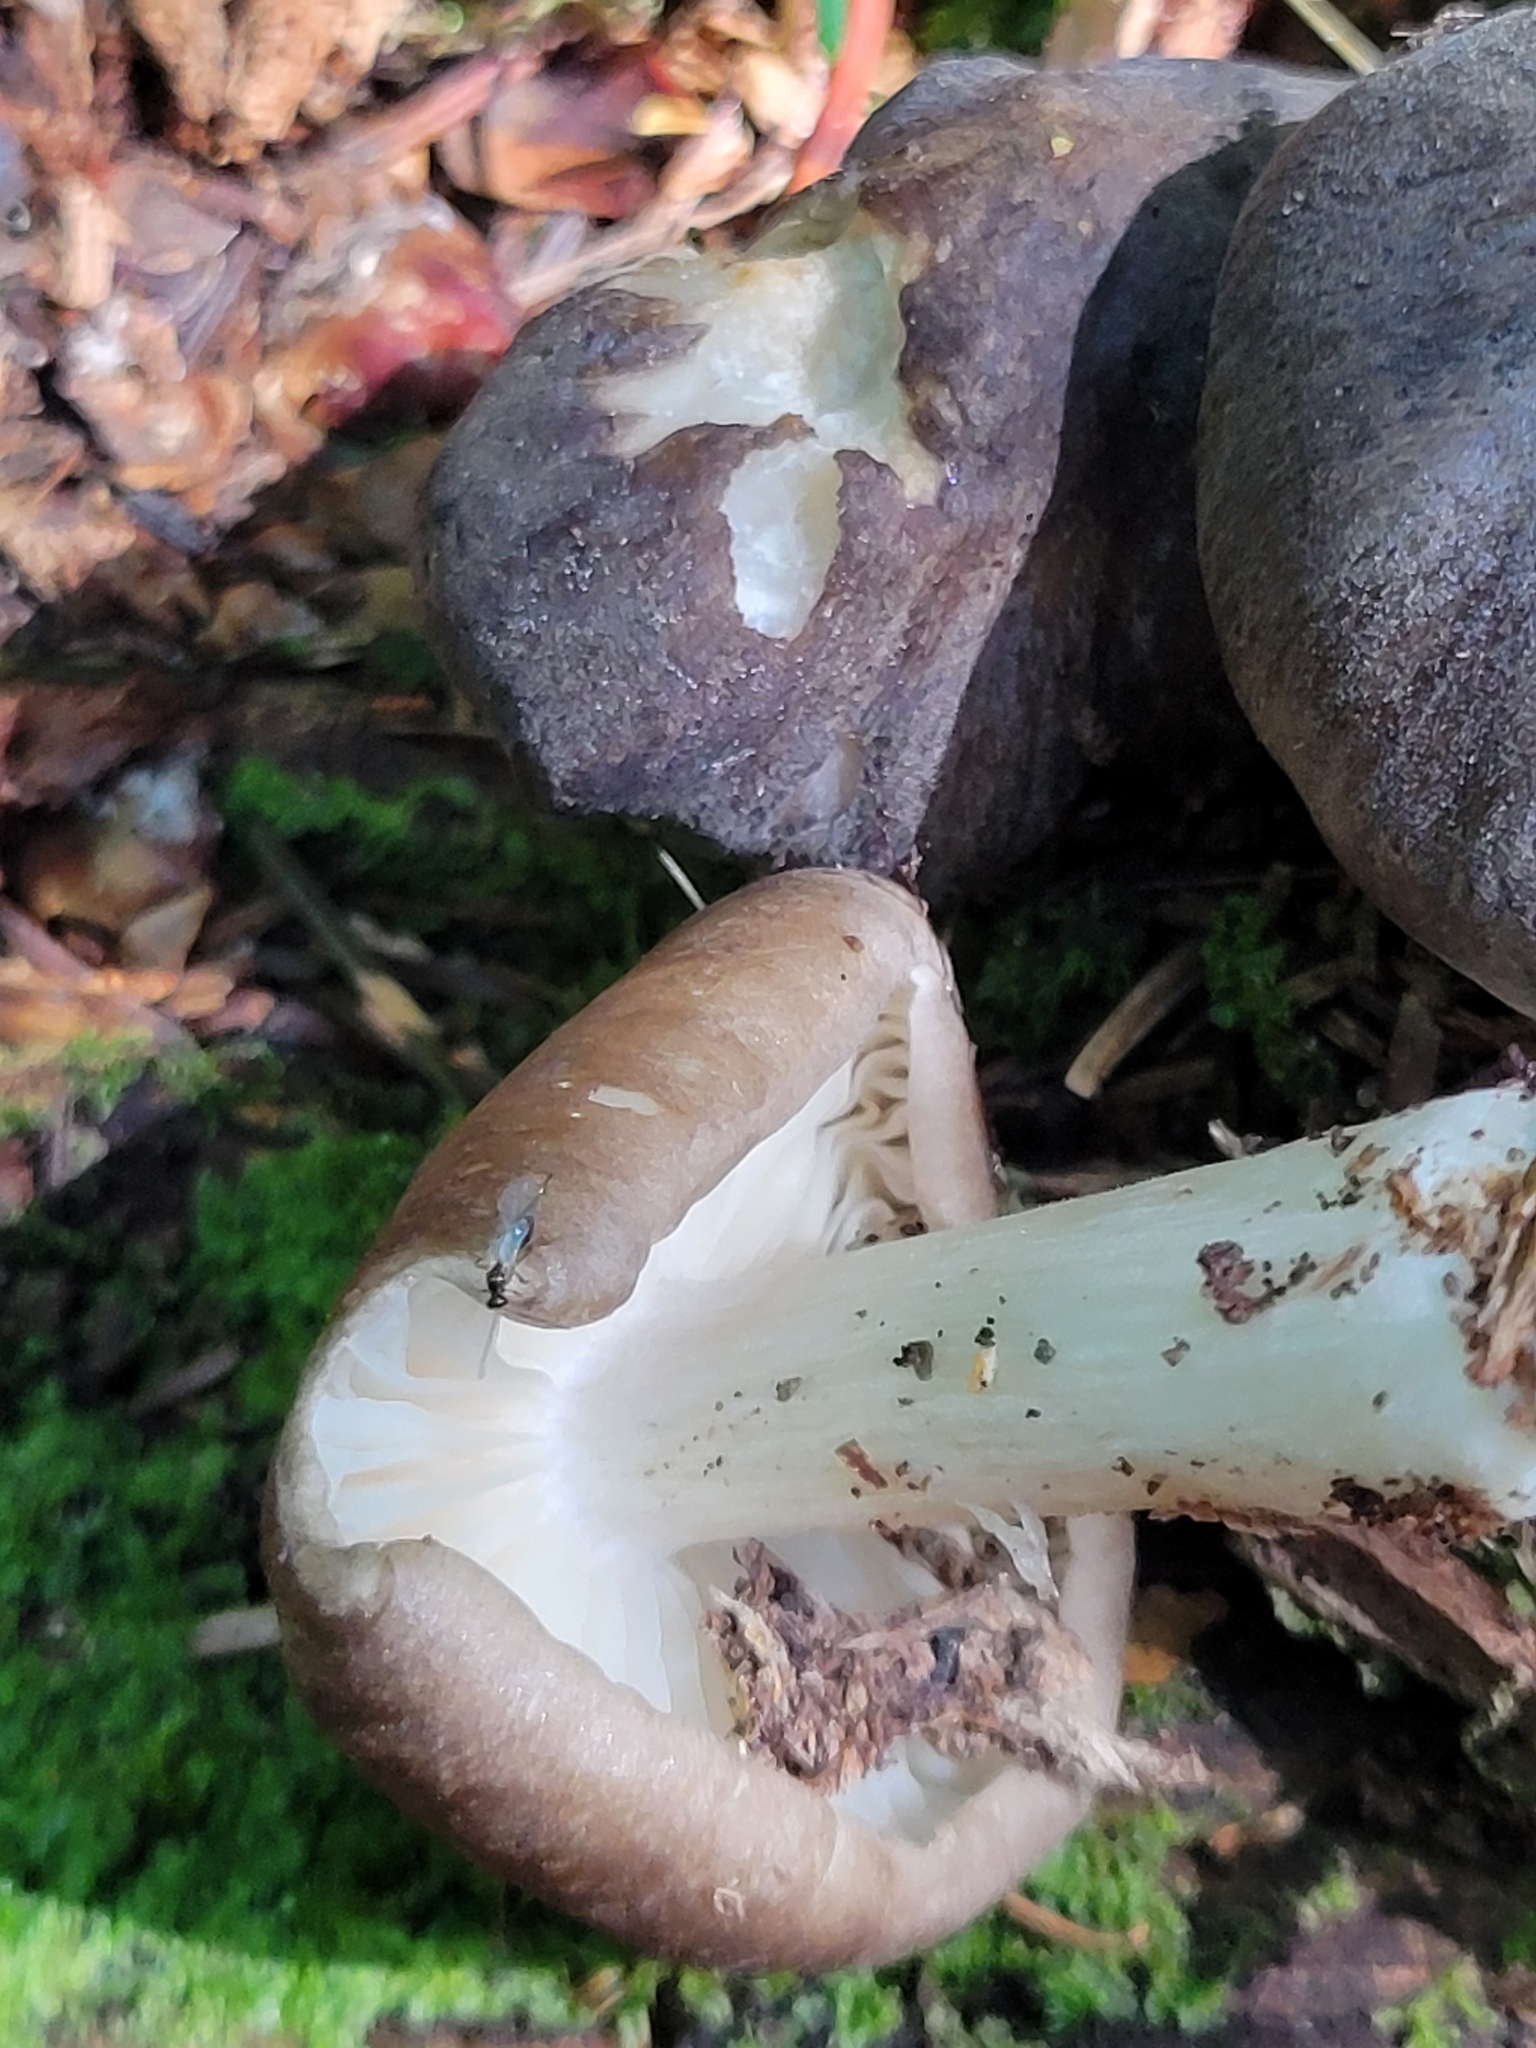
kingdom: Fungi
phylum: Basidiomycota
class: Agaricomycetes
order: Agaricales
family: Tricholomataceae
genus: Megacollybia
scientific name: Megacollybia rodmanii
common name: Eastern american platterful mushroom
